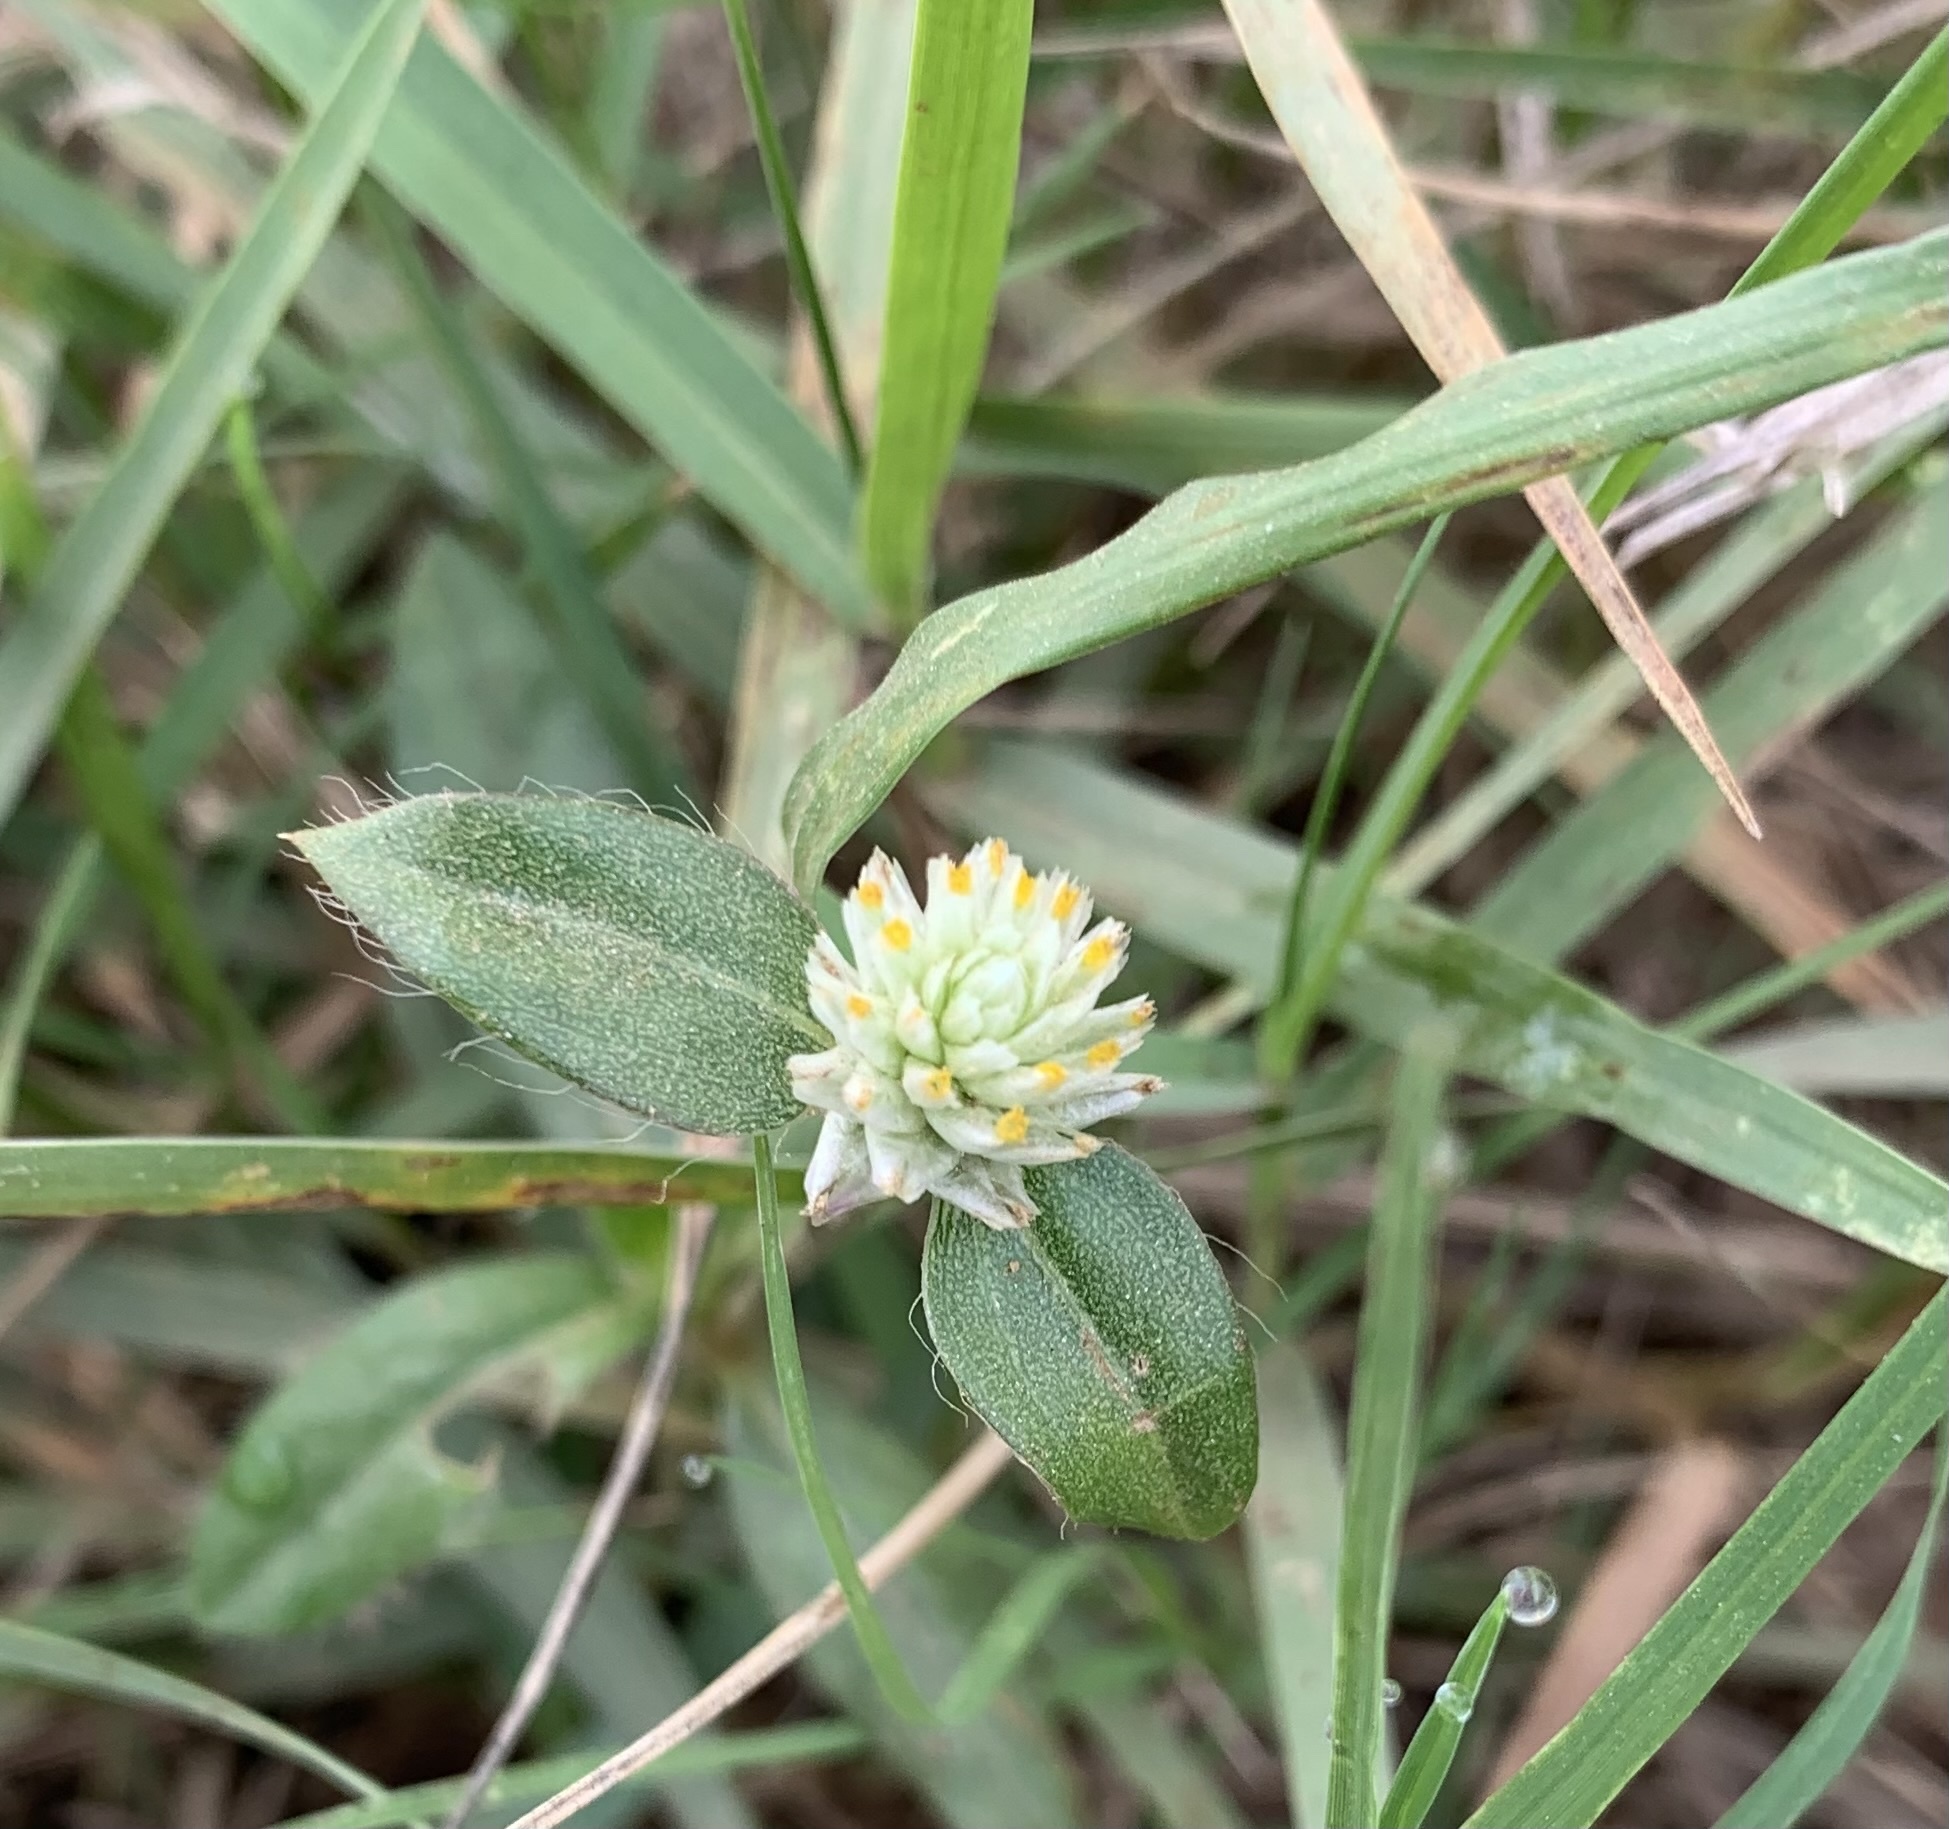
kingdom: Plantae
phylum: Tracheophyta
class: Magnoliopsida
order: Caryophyllales
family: Amaranthaceae
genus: Gomphrena
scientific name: Gomphrena celosioides
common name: Gomphrena-weed
